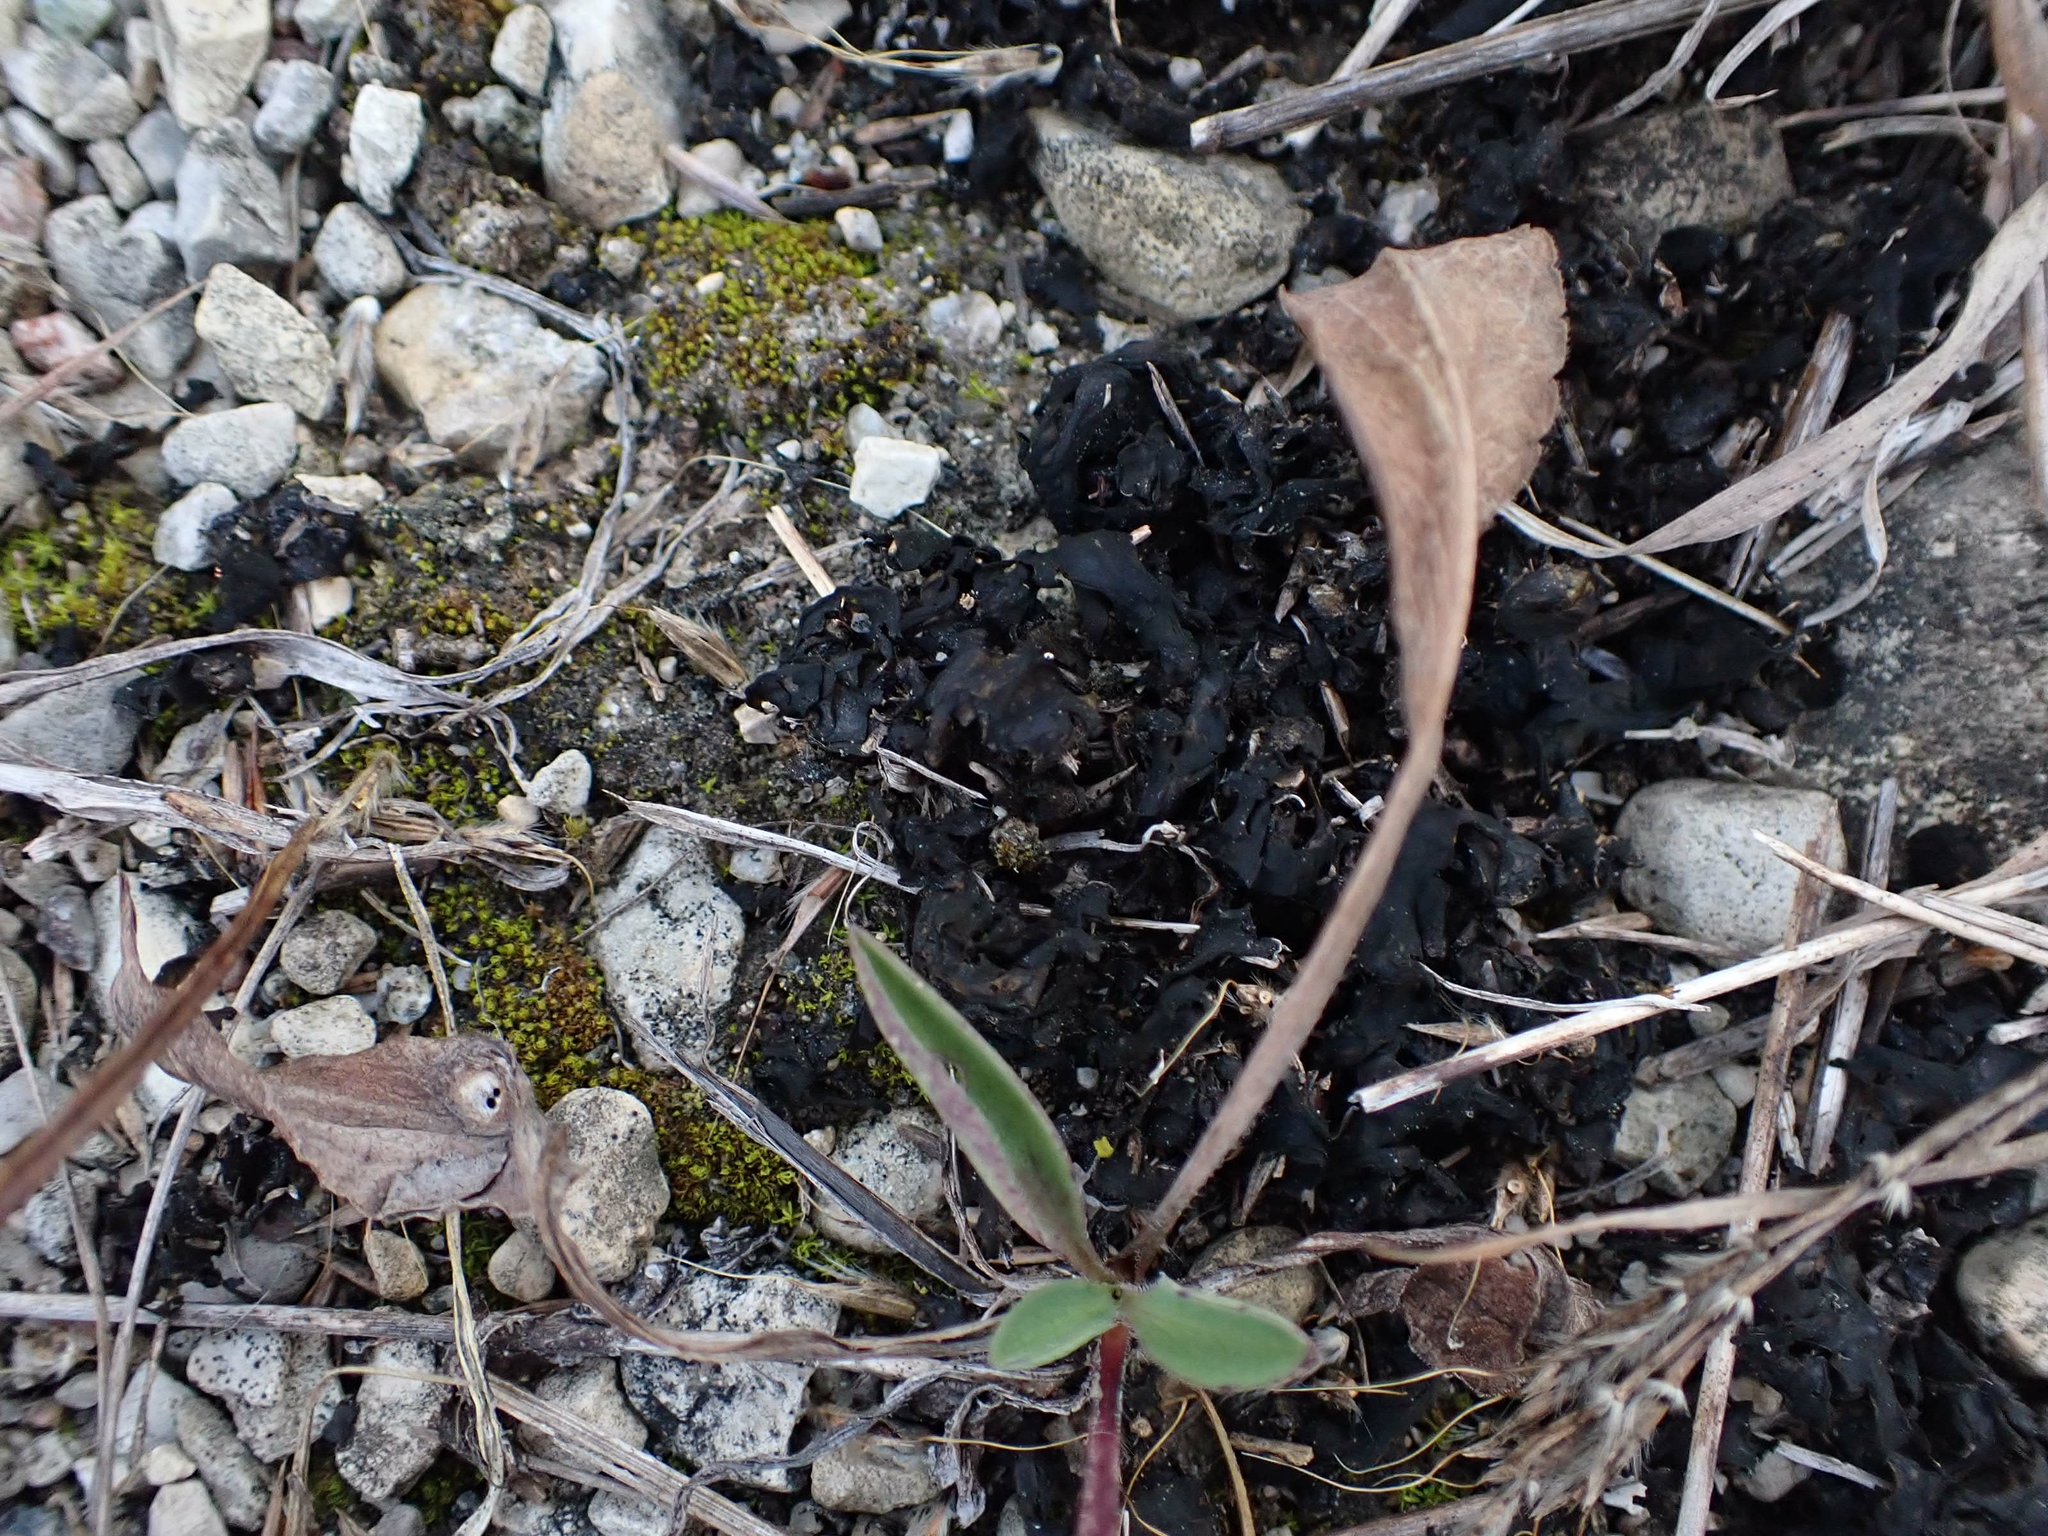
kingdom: Bacteria
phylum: Cyanobacteria
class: Cyanobacteriia
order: Cyanobacteriales
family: Nostocaceae
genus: Nostoc
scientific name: Nostoc commune
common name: Star jelly
